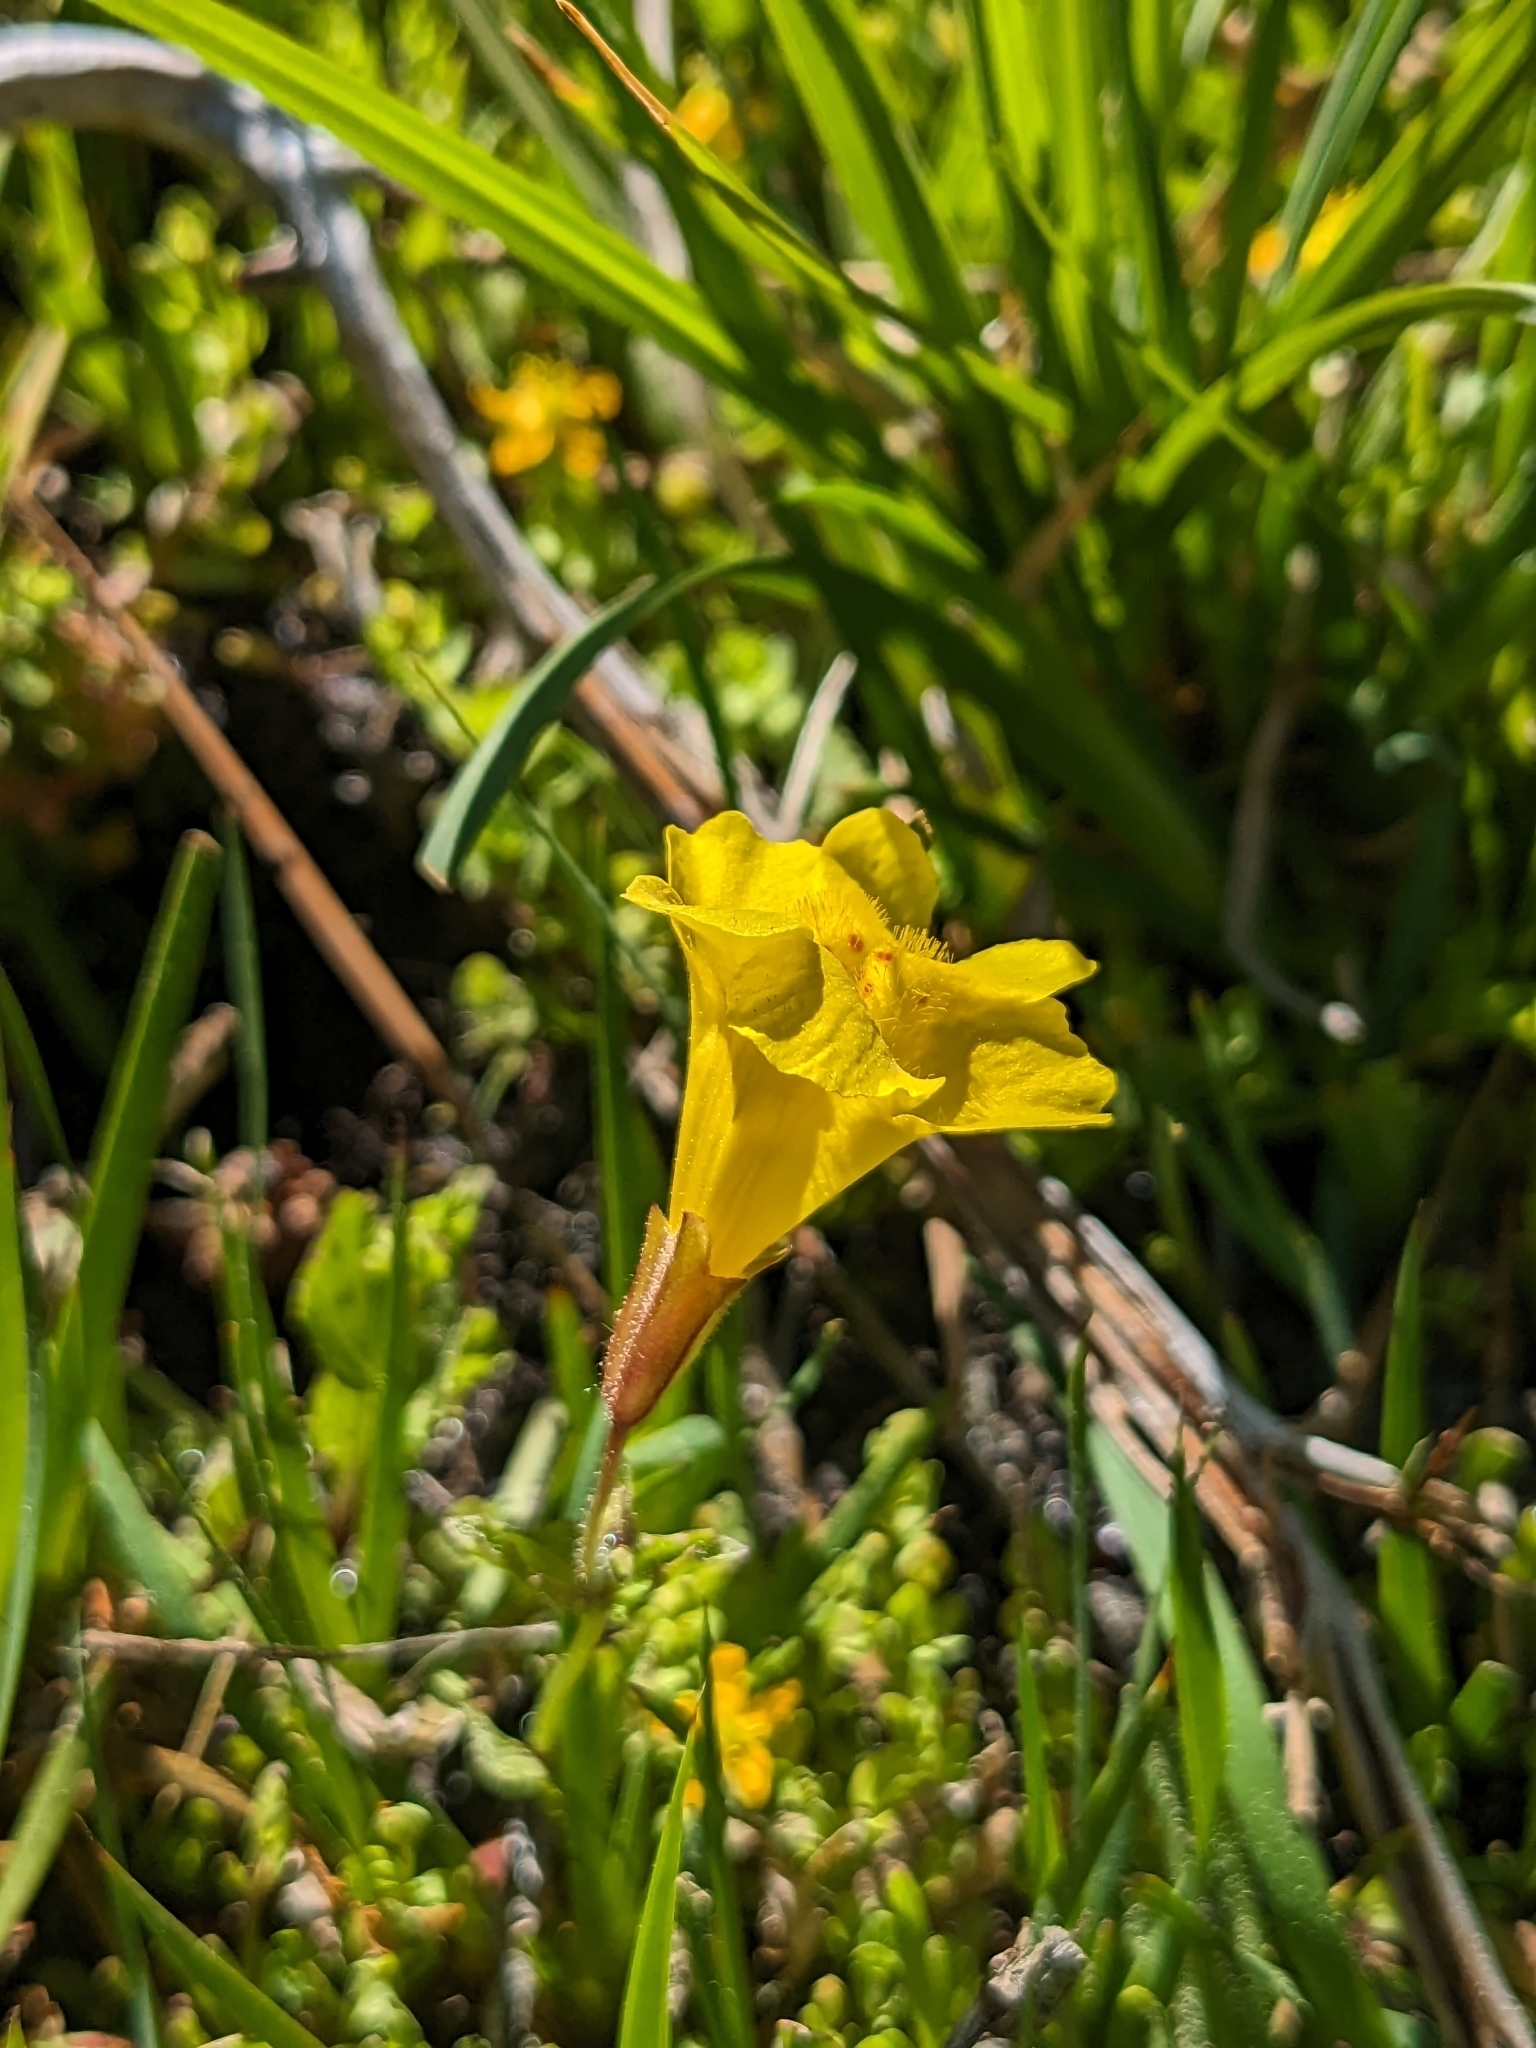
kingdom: Plantae
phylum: Tracheophyta
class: Magnoliopsida
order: Lamiales
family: Phrymaceae
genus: Erythranthe
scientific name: Erythranthe tilingii
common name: Subalpine monkey-flower
